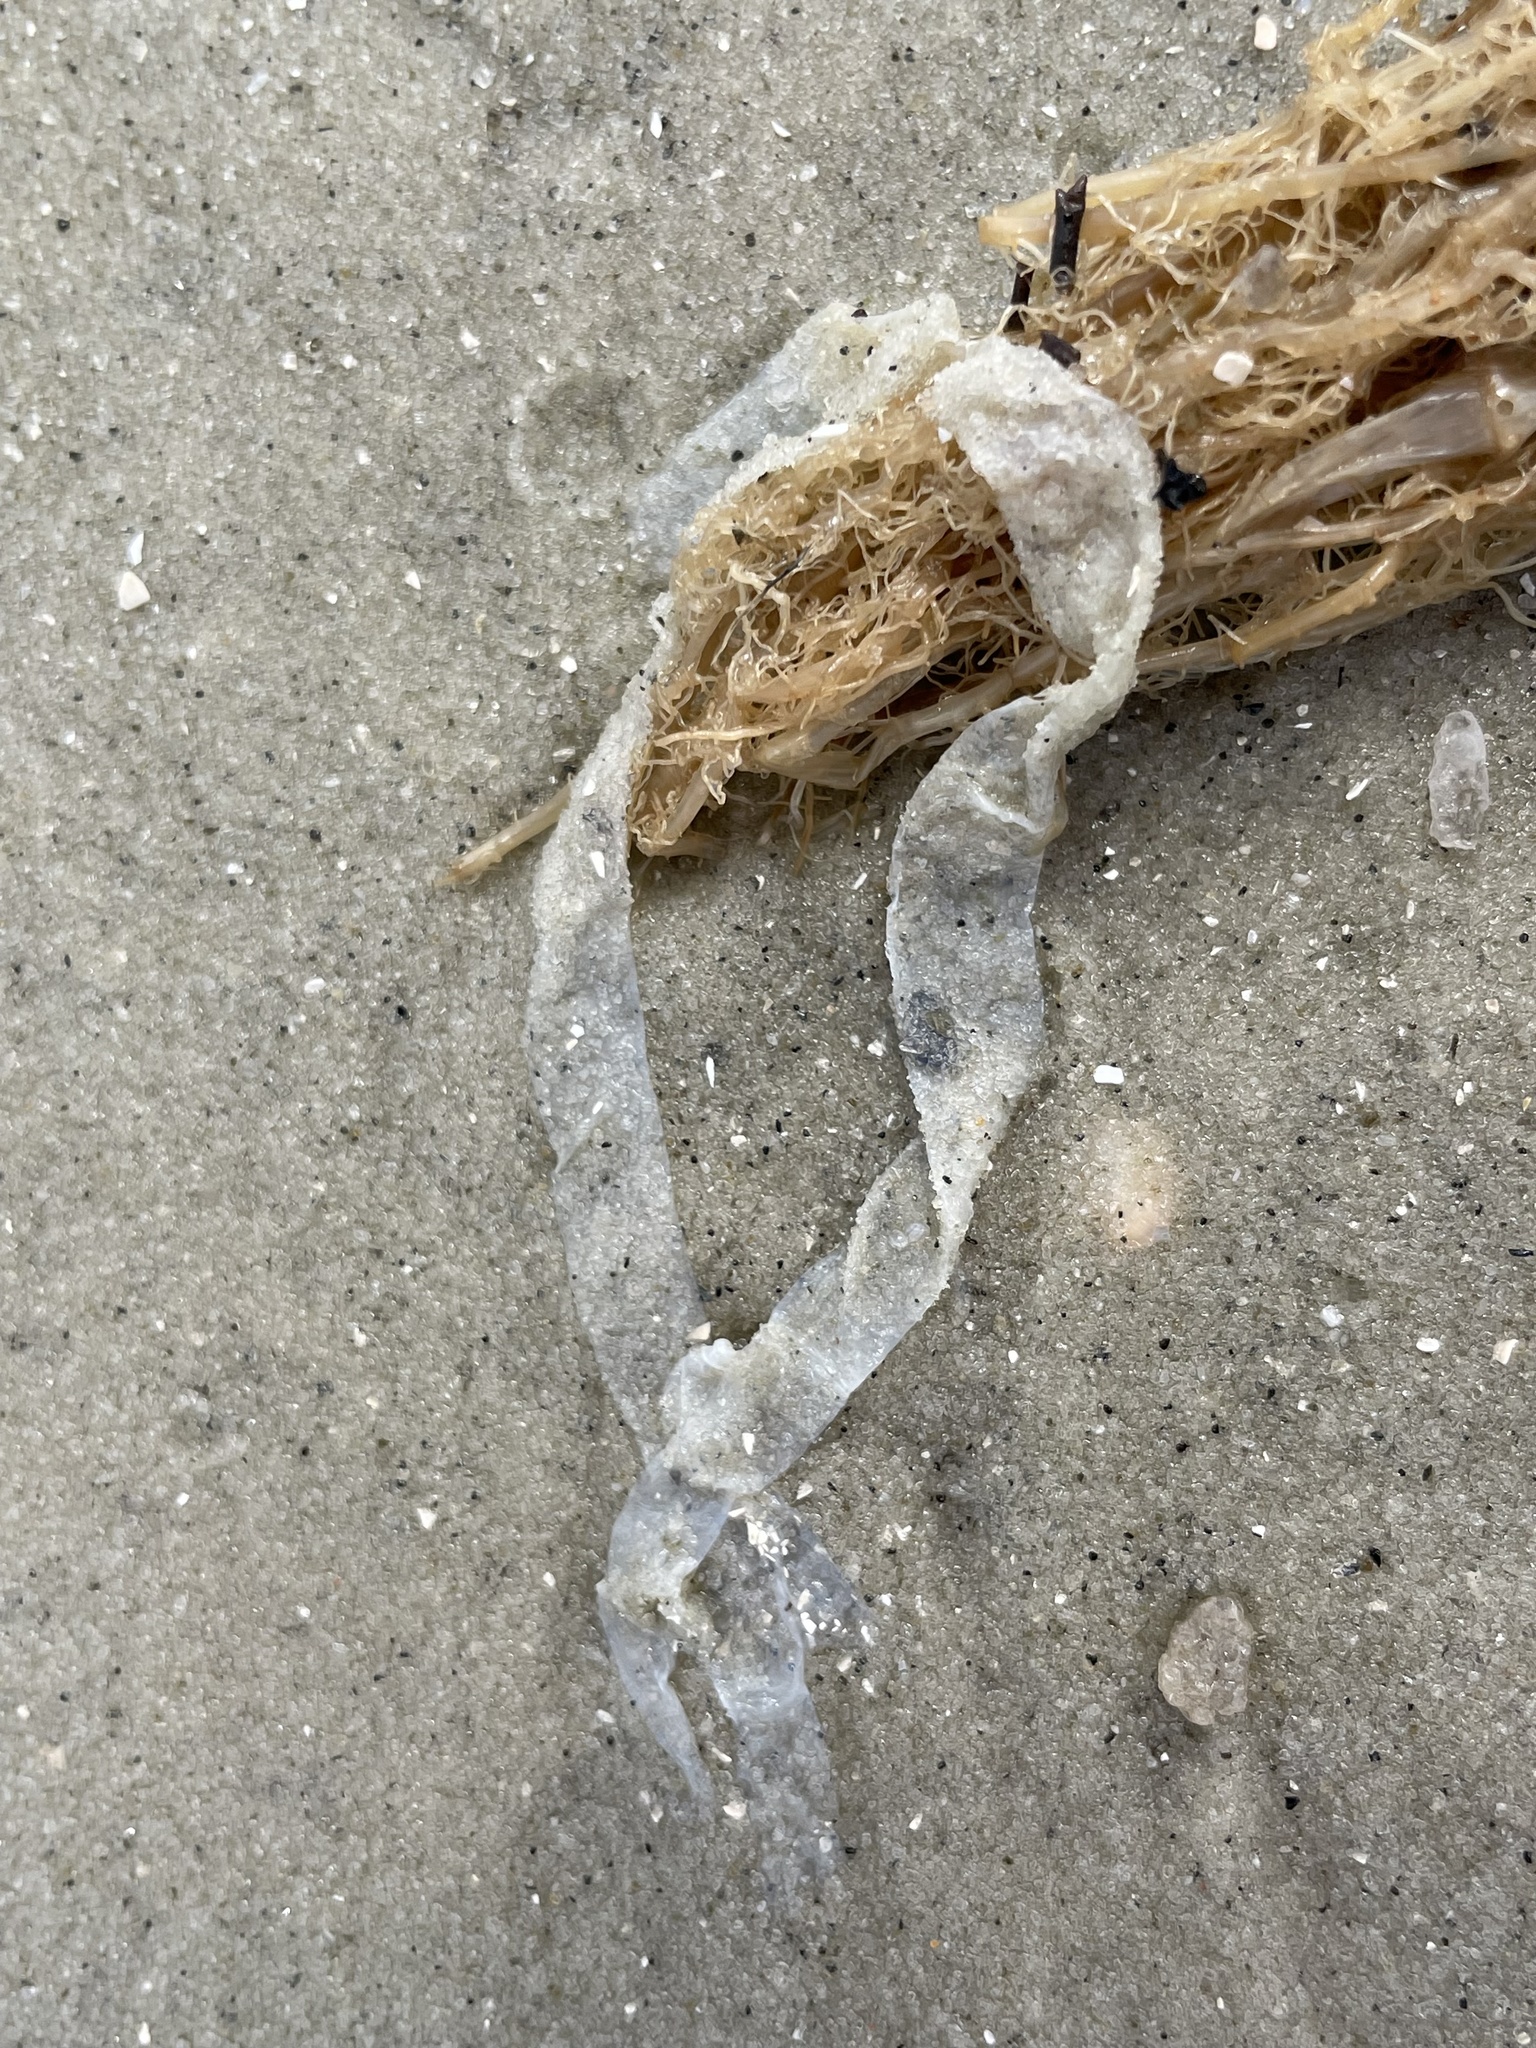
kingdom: Animalia
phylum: Annelida
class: Polychaeta
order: Eunicida
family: Onuphidae
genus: Kinbergonuphis
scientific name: Kinbergonuphis jenneri
